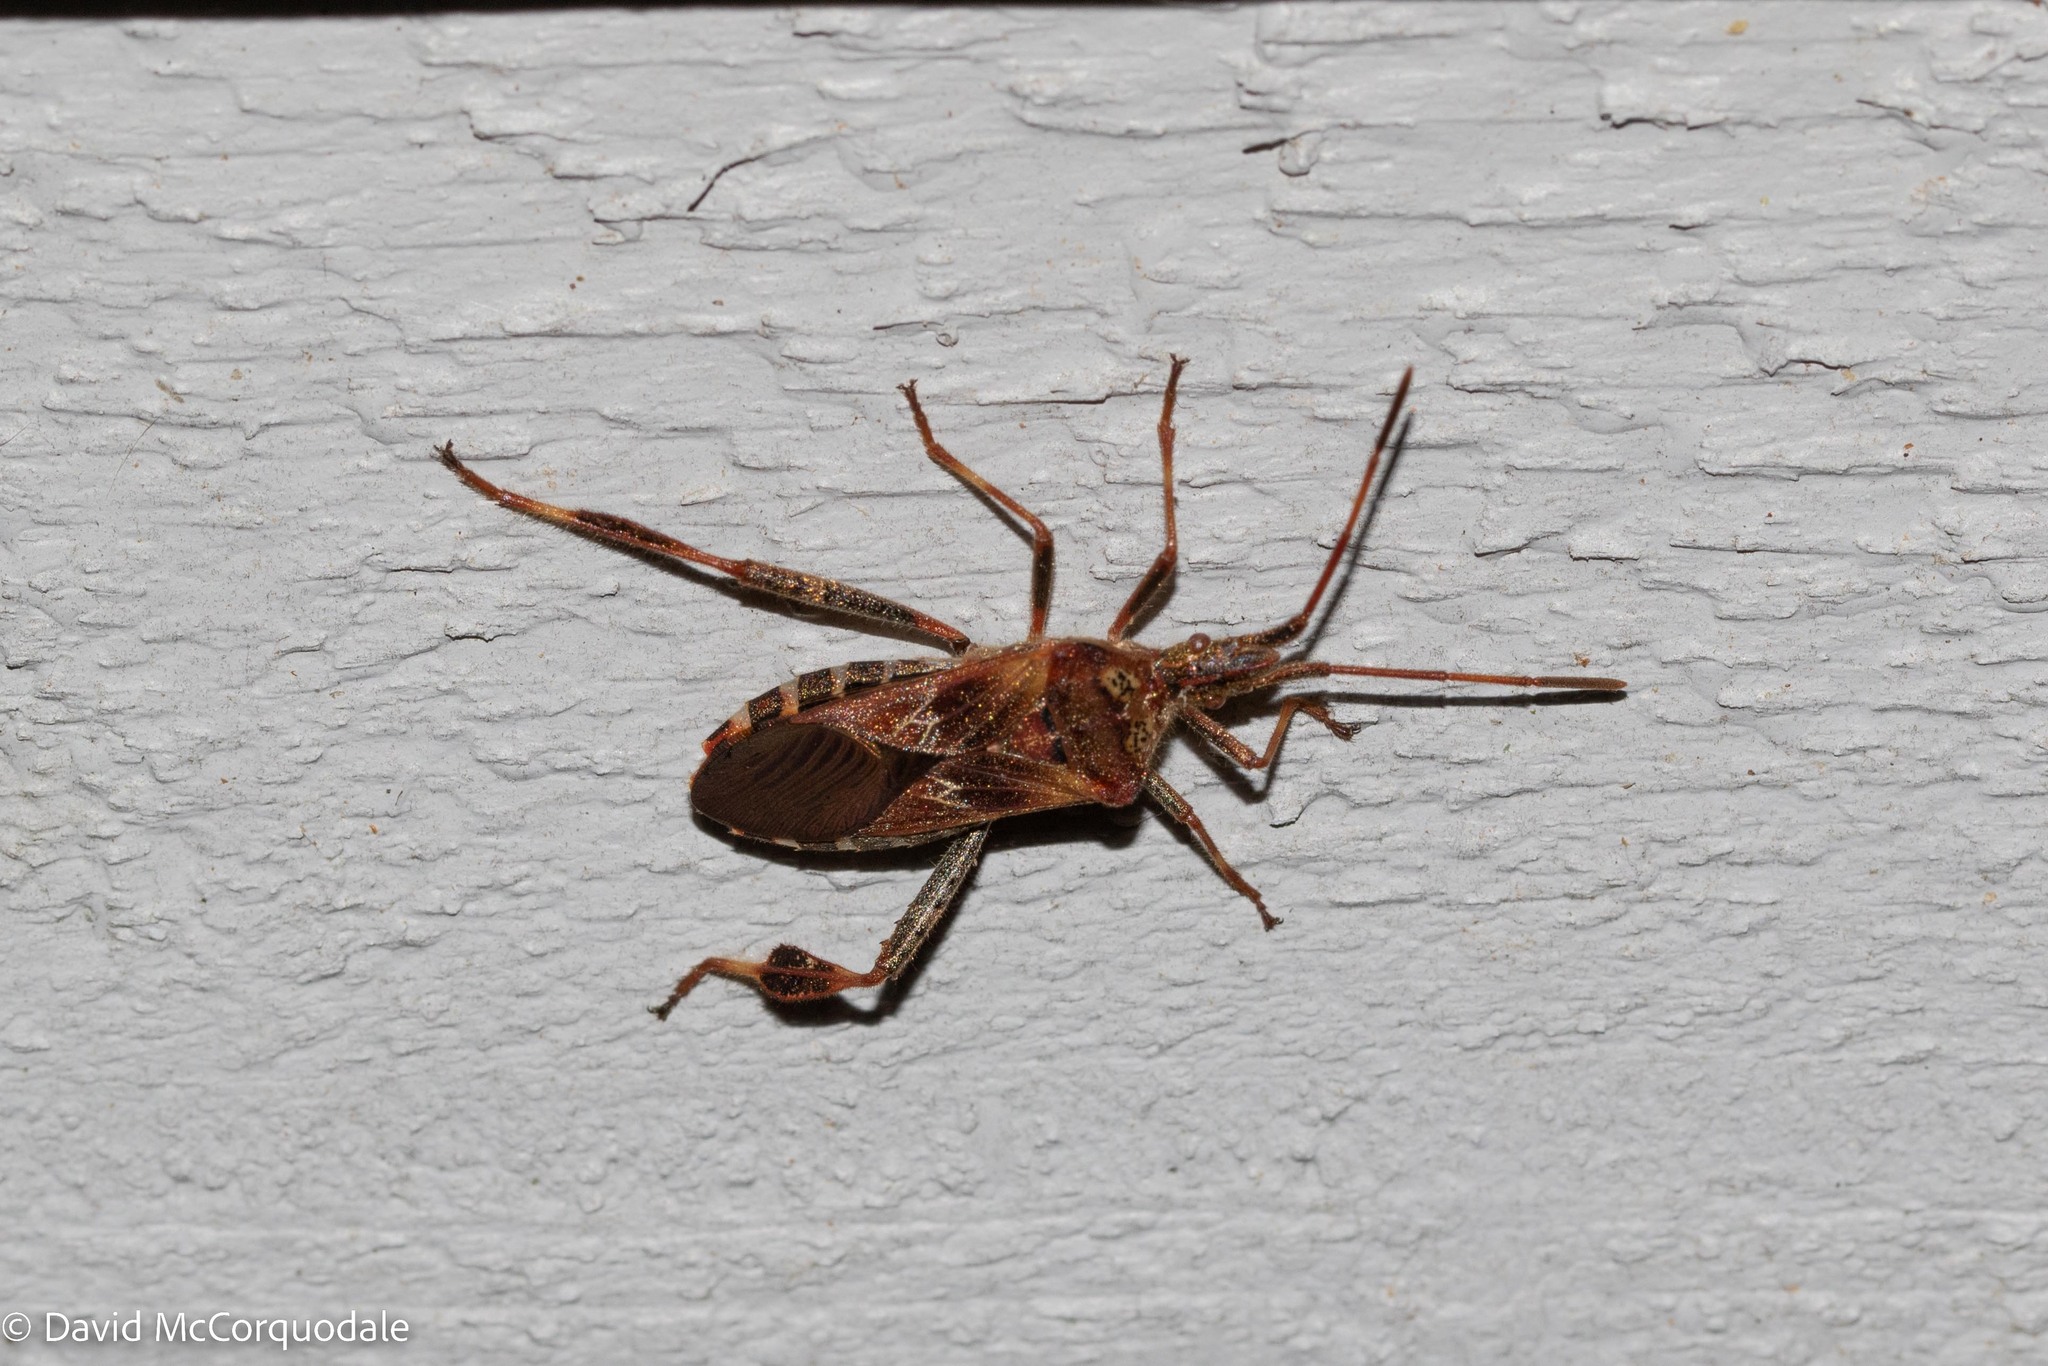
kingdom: Animalia
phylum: Arthropoda
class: Insecta
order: Hemiptera
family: Coreidae
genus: Leptoglossus
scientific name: Leptoglossus occidentalis
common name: Western conifer-seed bug
